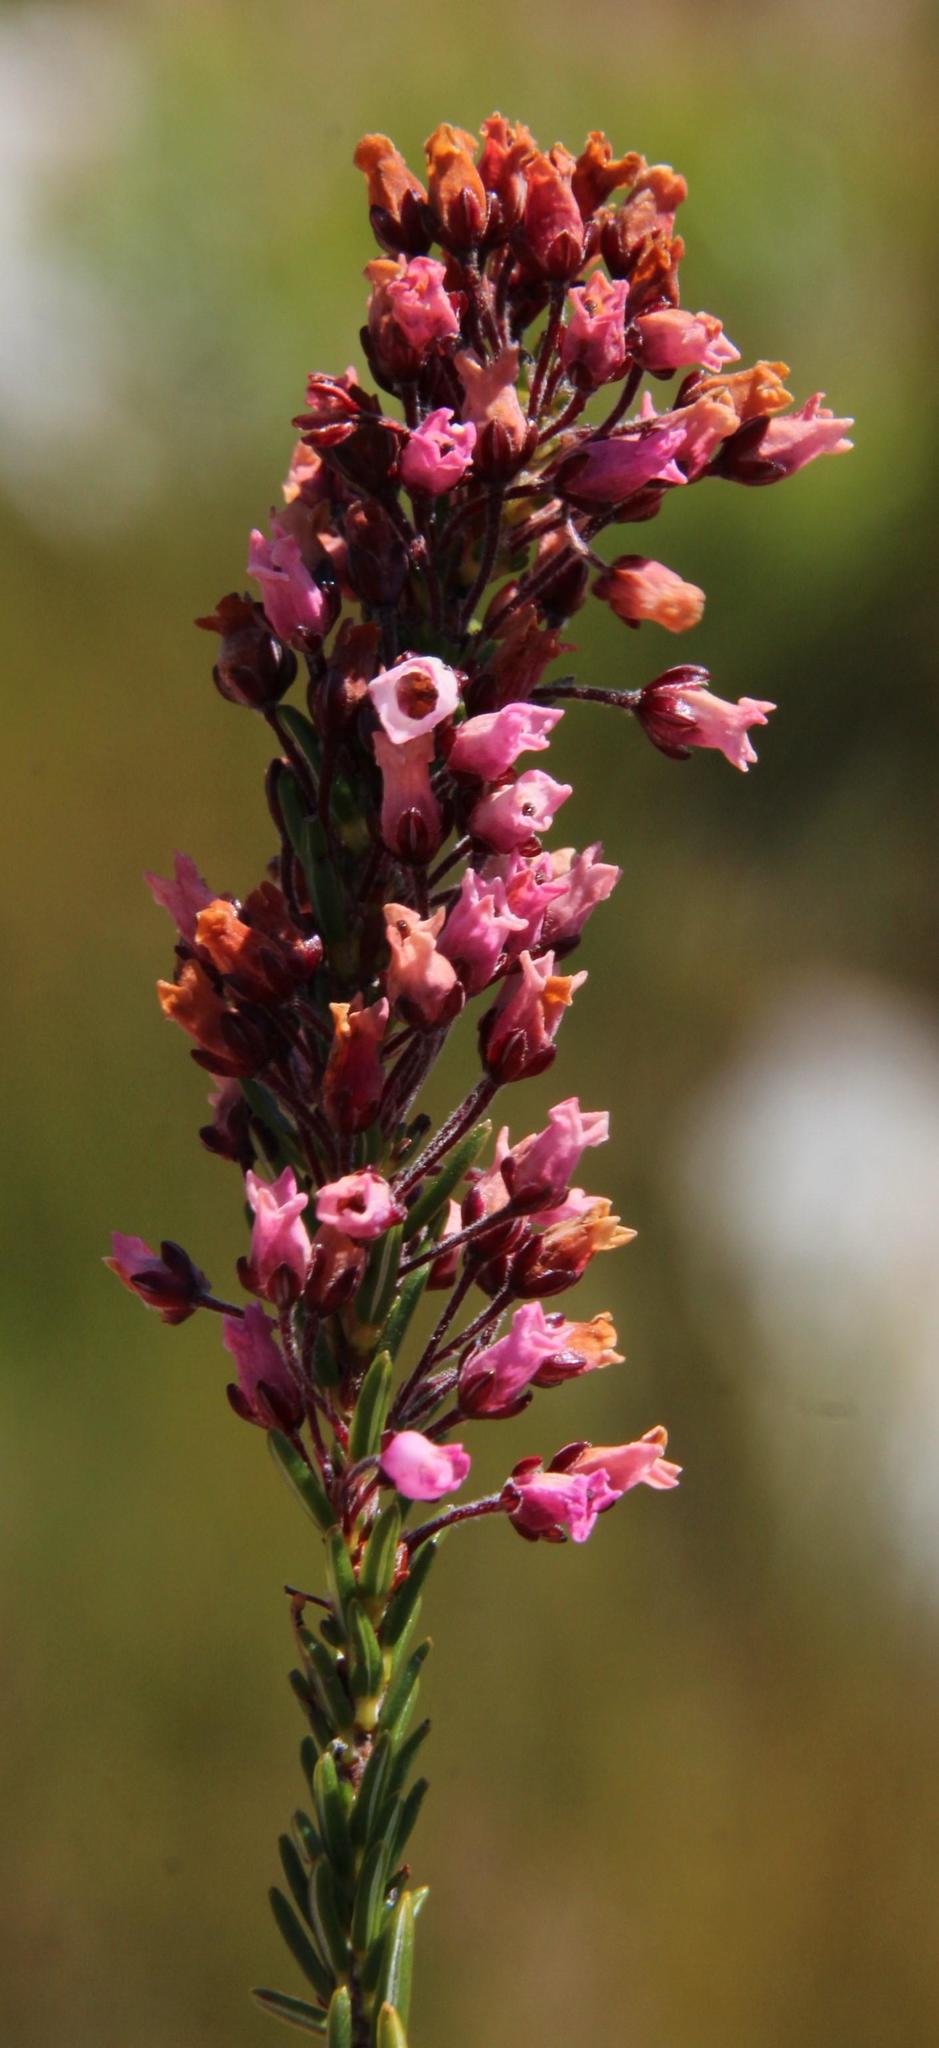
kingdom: Plantae
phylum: Tracheophyta
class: Magnoliopsida
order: Ericales
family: Ericaceae
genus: Erica
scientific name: Erica pulchella
